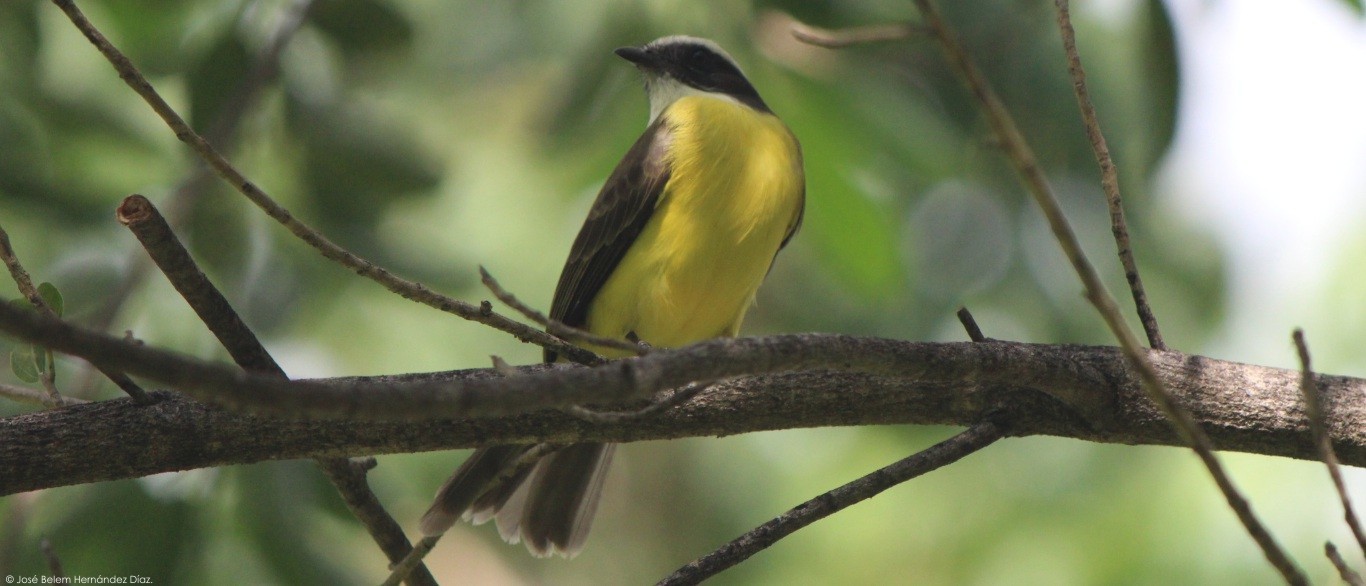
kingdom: Animalia
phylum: Chordata
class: Aves
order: Passeriformes
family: Tyrannidae
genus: Myiozetetes
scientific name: Myiozetetes similis
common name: Social flycatcher
